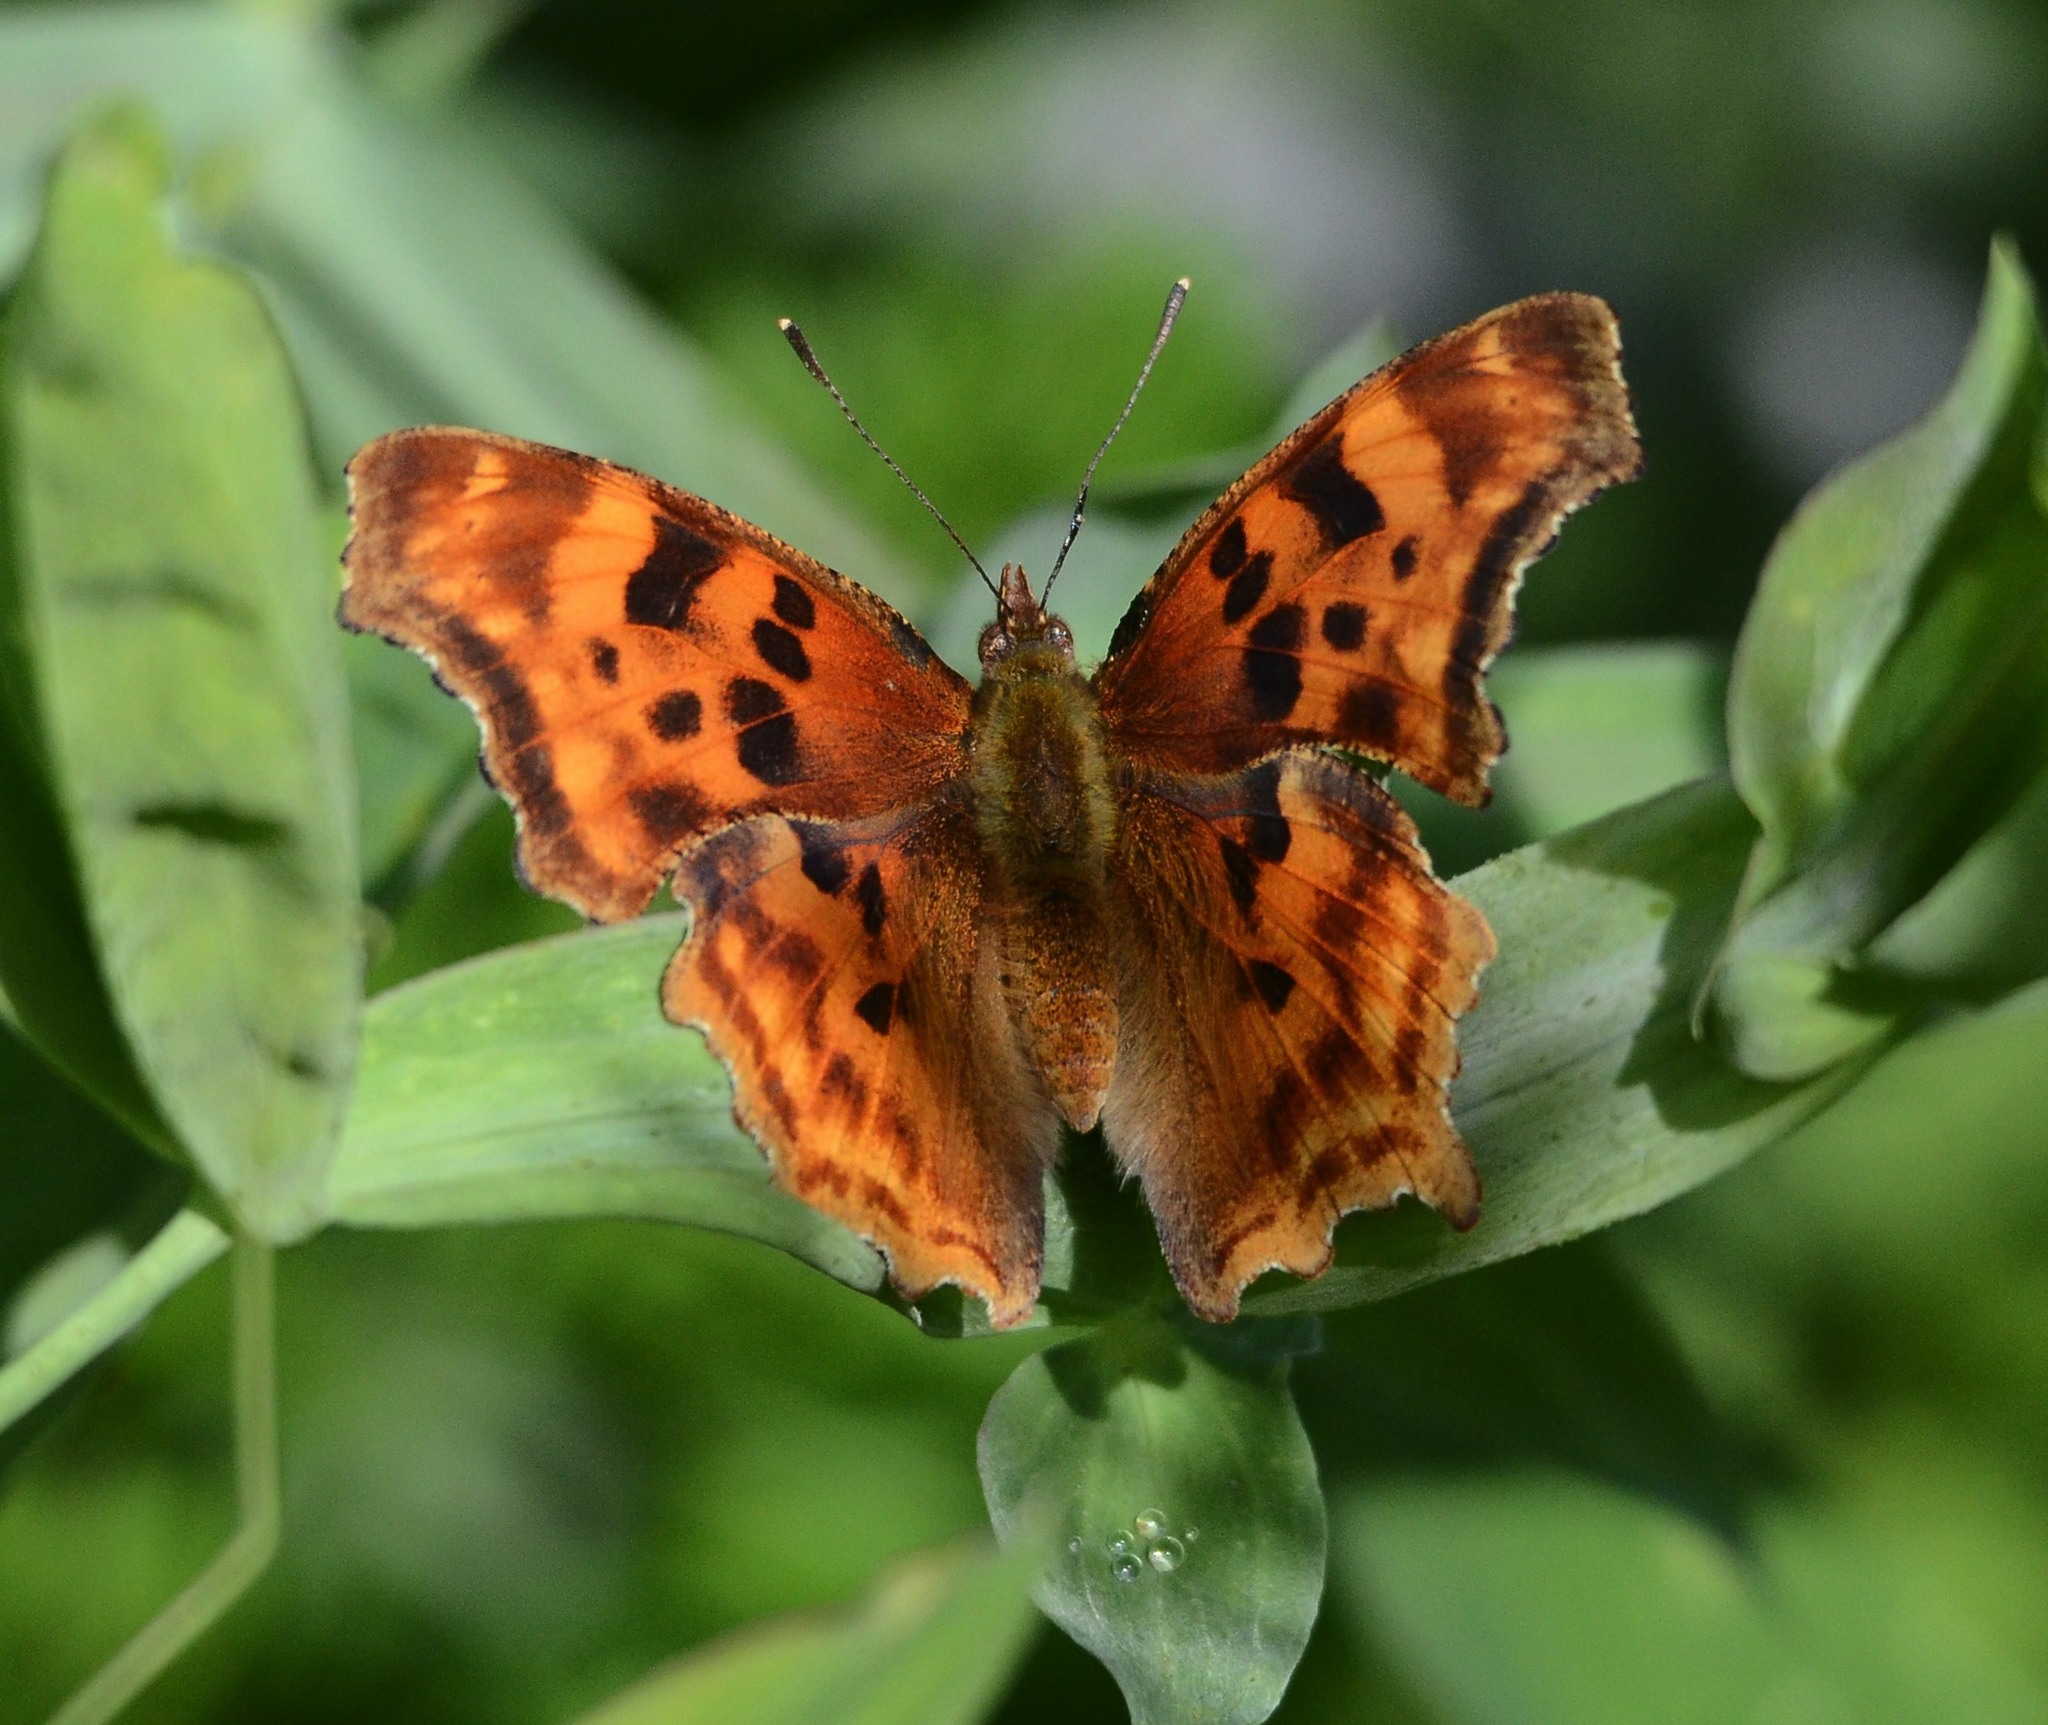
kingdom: Animalia
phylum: Arthropoda
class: Insecta
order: Lepidoptera
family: Nymphalidae
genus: Polygonia
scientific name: Polygonia satyrus
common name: Satyr angle wing
